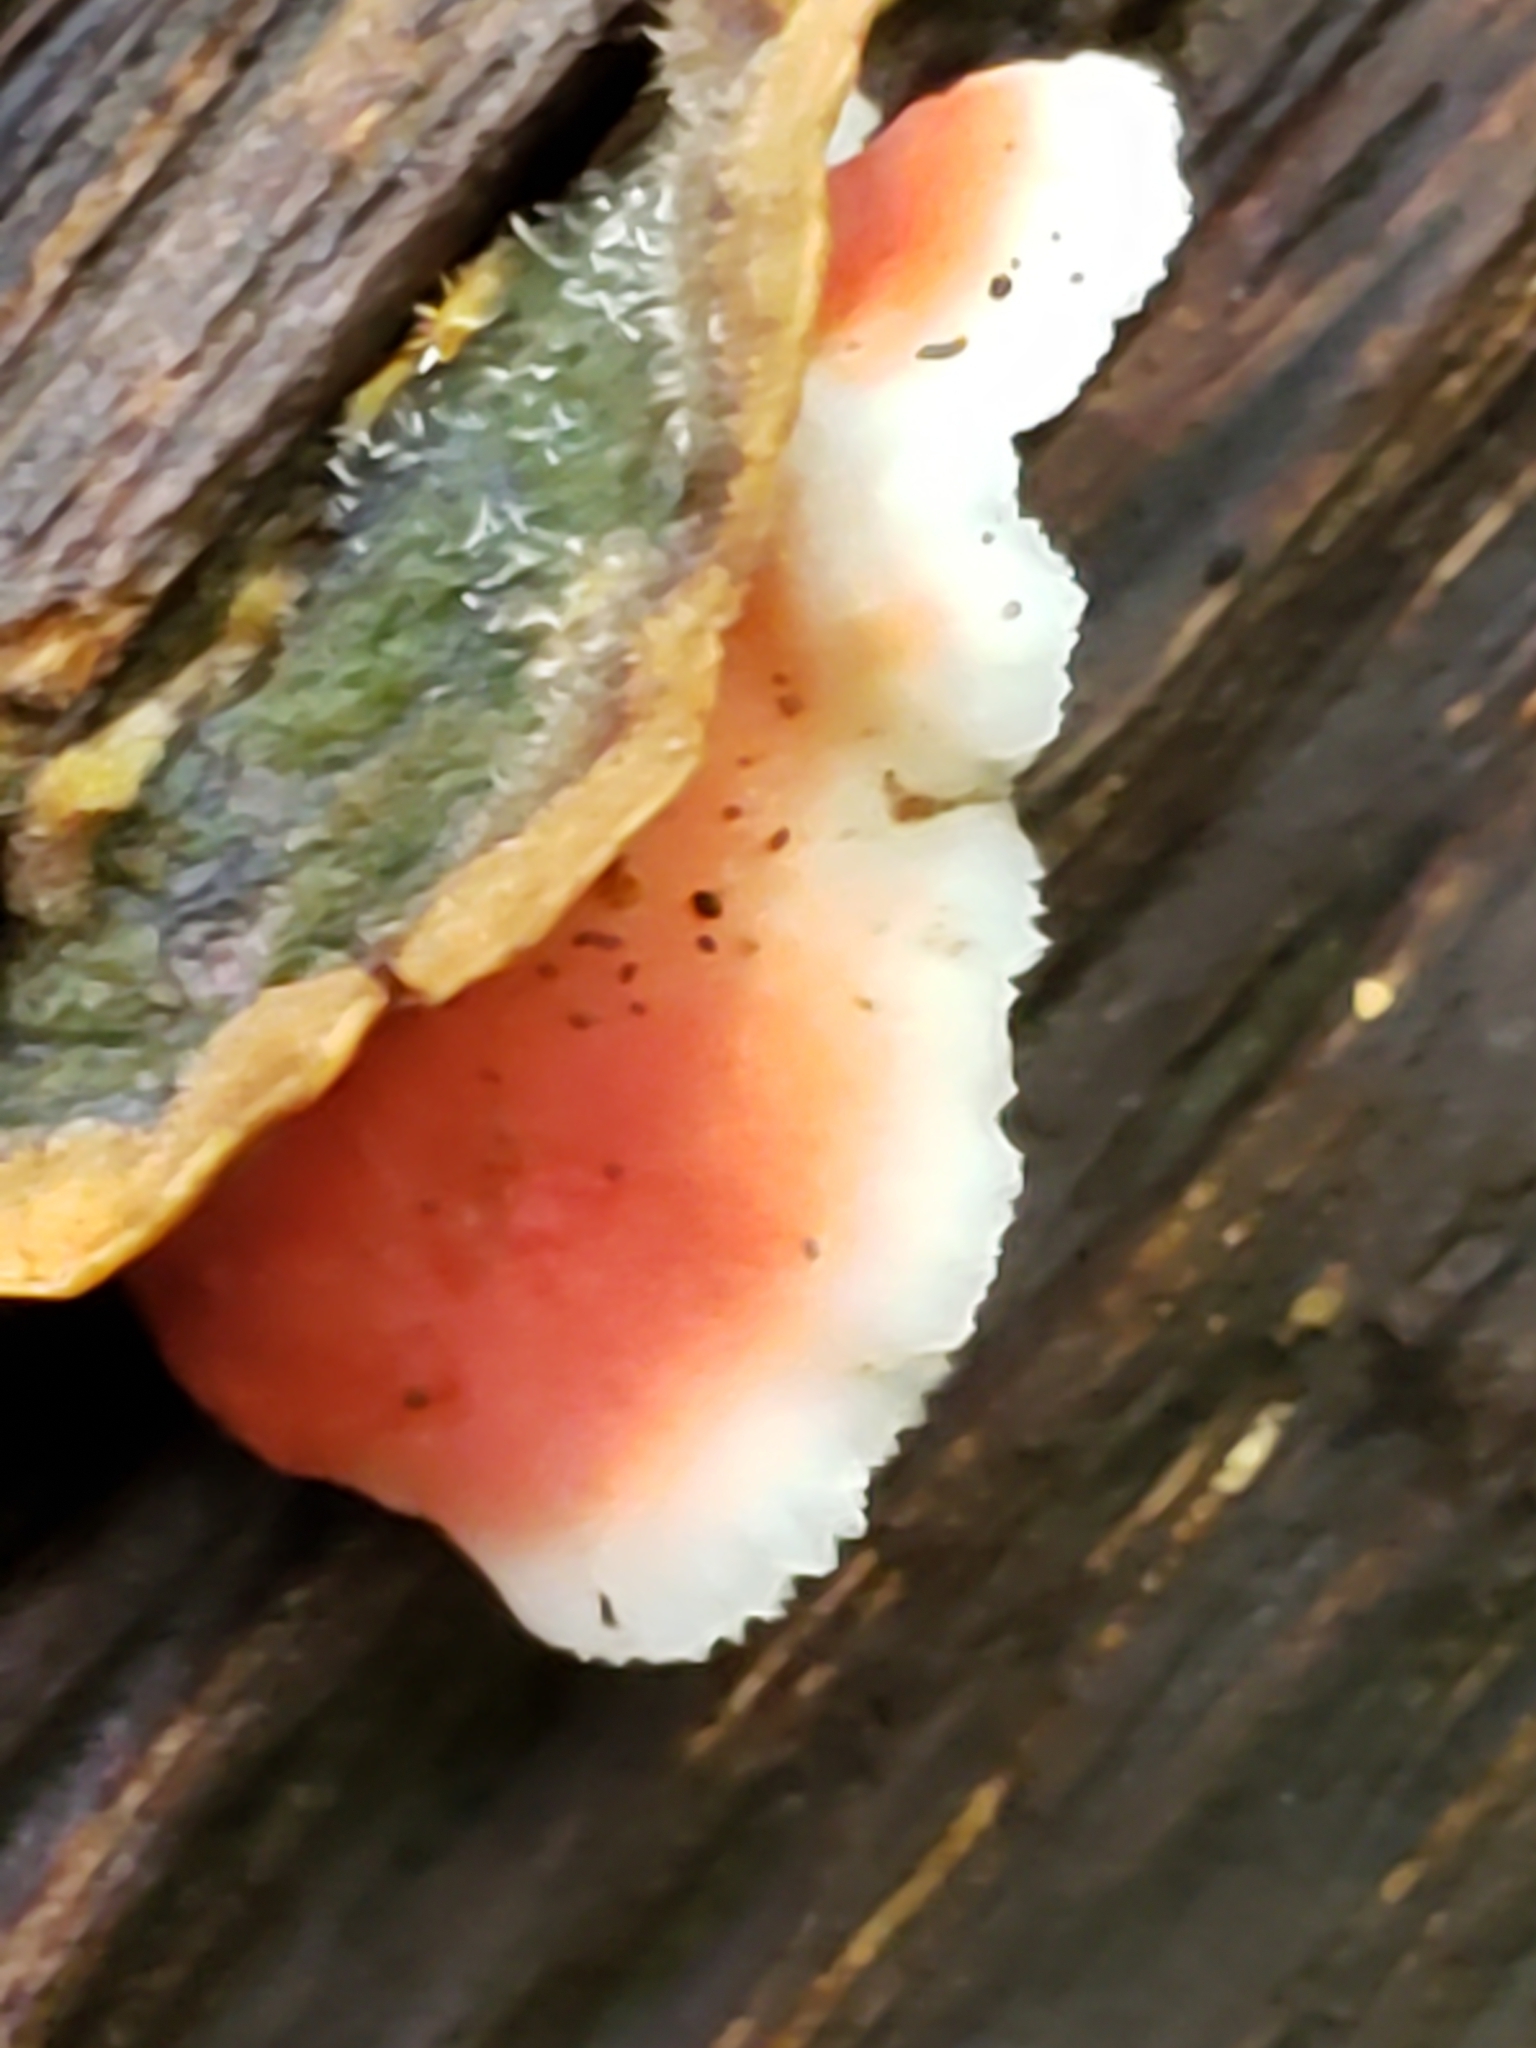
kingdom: Fungi
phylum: Basidiomycota
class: Agaricomycetes
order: Polyporales
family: Irpicaceae
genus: Byssomerulius
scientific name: Byssomerulius incarnatus
